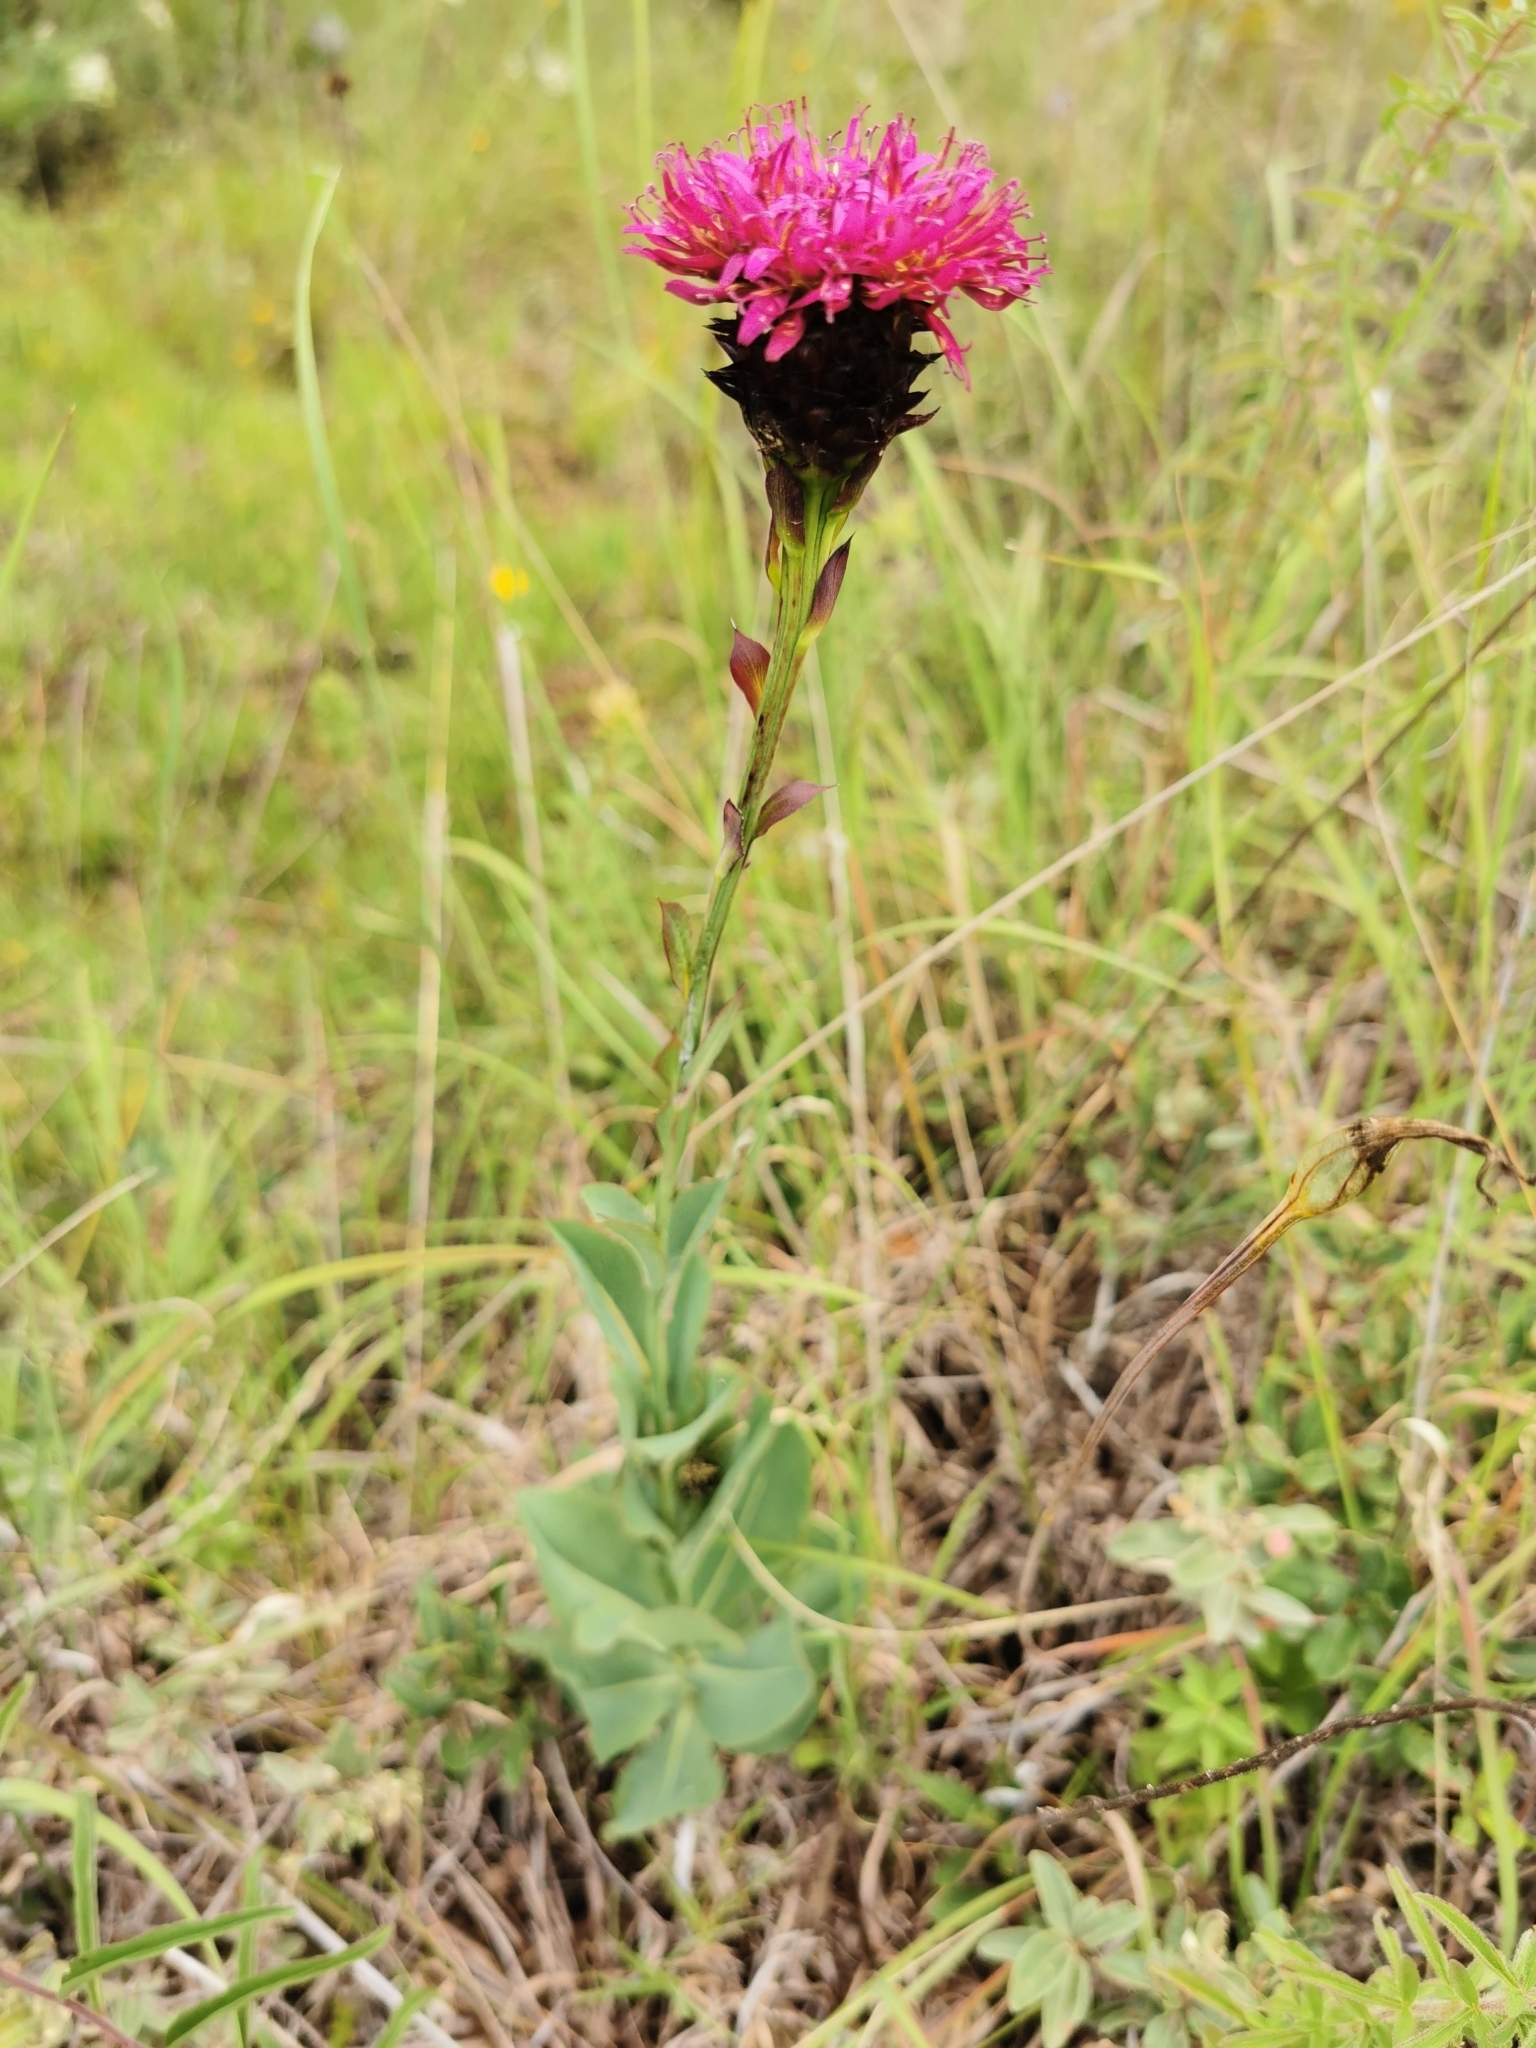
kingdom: Plantae
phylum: Tracheophyta
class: Magnoliopsida
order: Asterales
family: Asteraceae
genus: Acourtia
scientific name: Acourtia wislizeni
